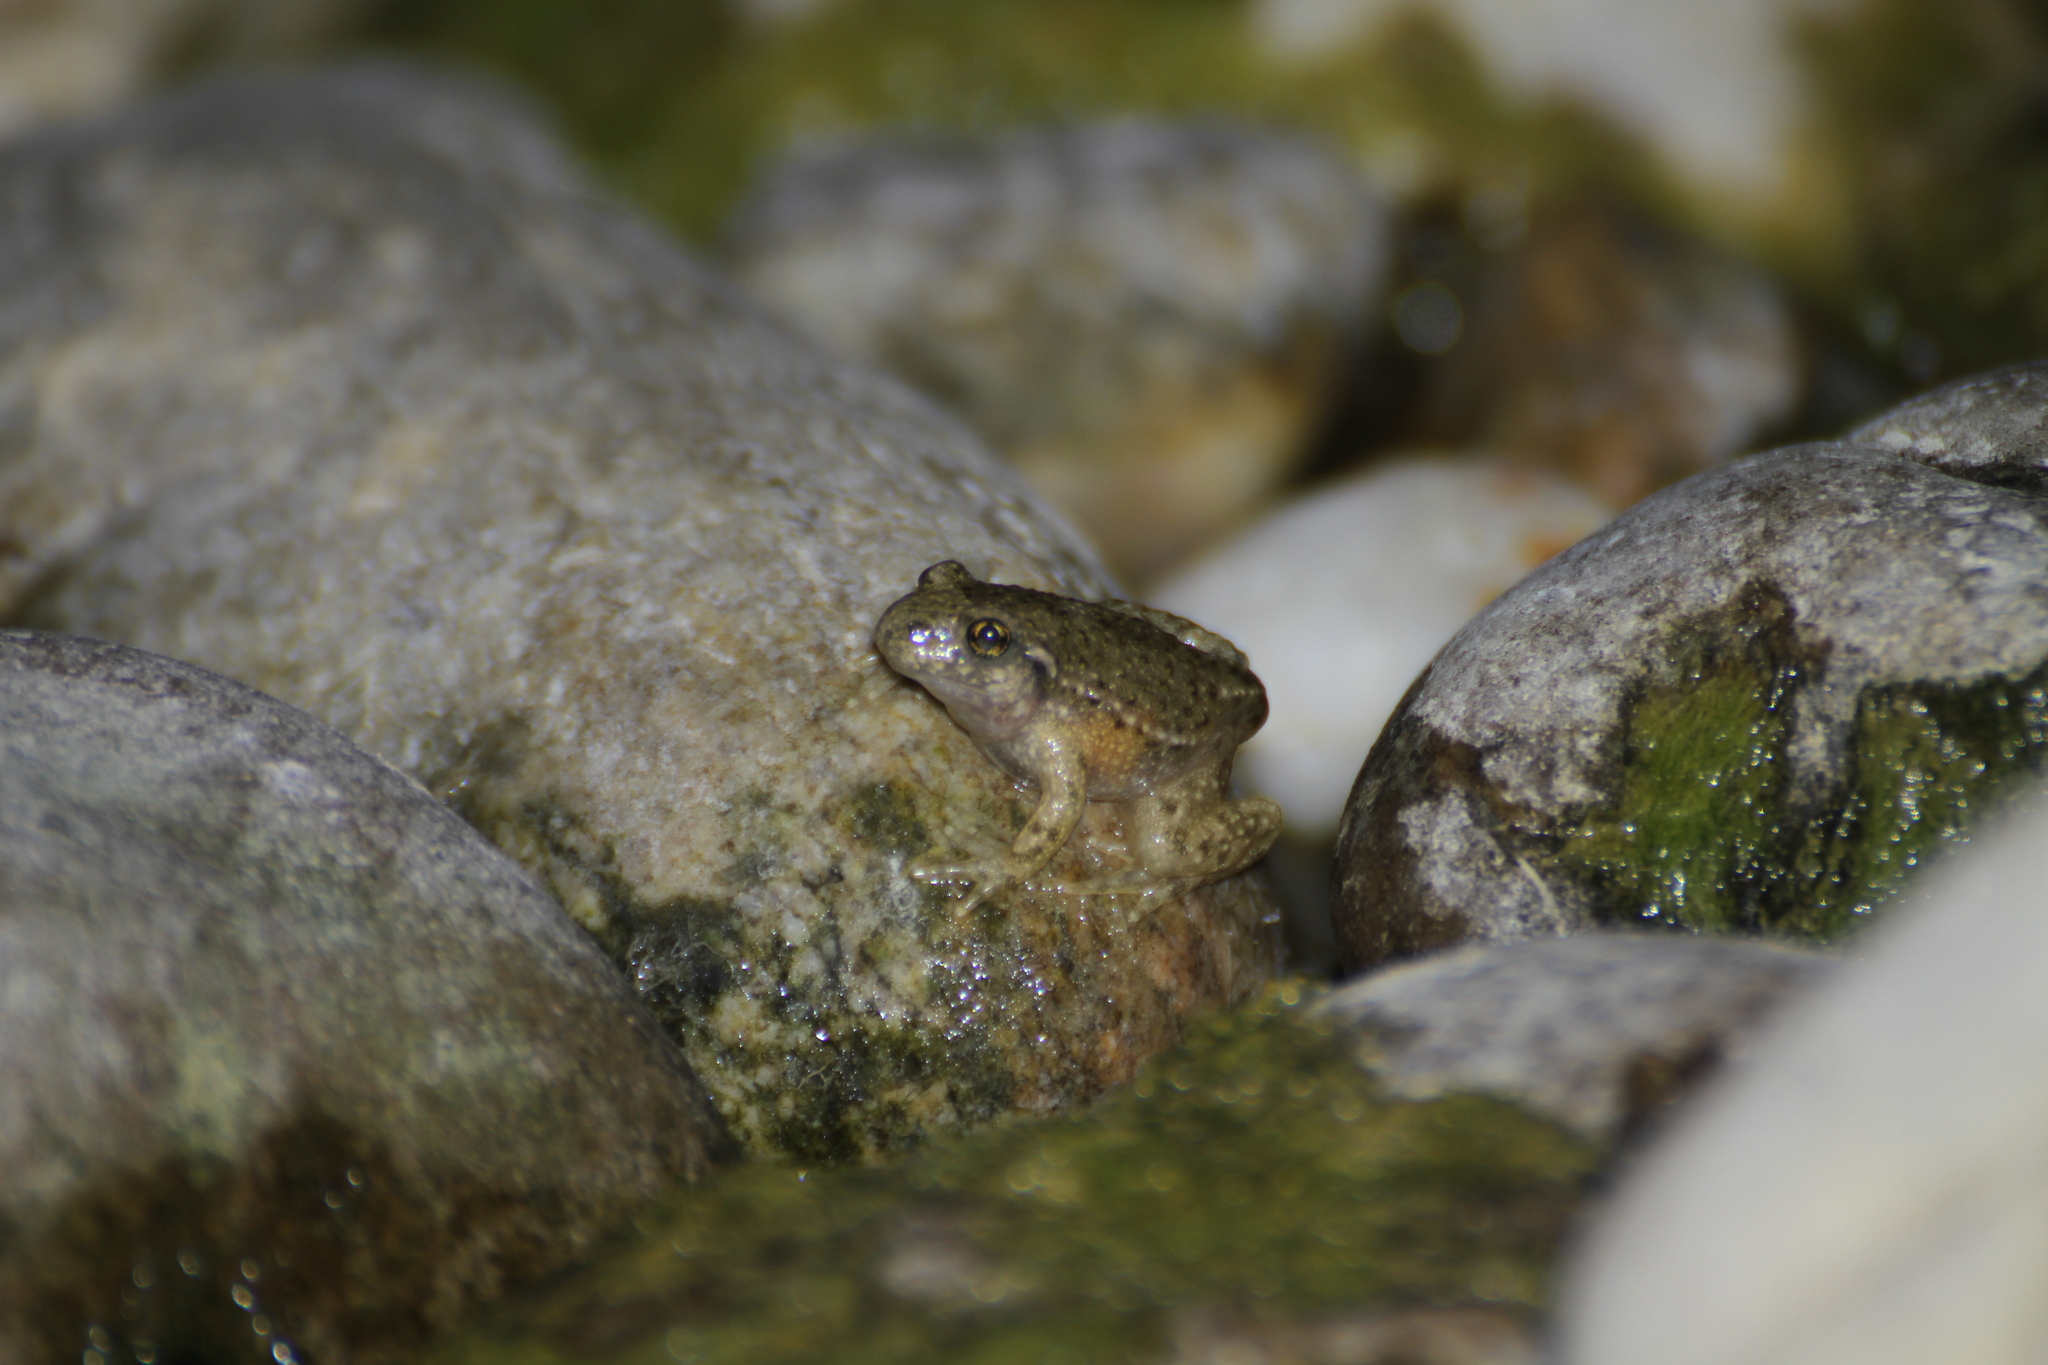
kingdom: Animalia
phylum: Chordata
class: Amphibia
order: Anura
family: Alytidae
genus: Alytes
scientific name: Alytes obstetricans
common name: Midwife toad
